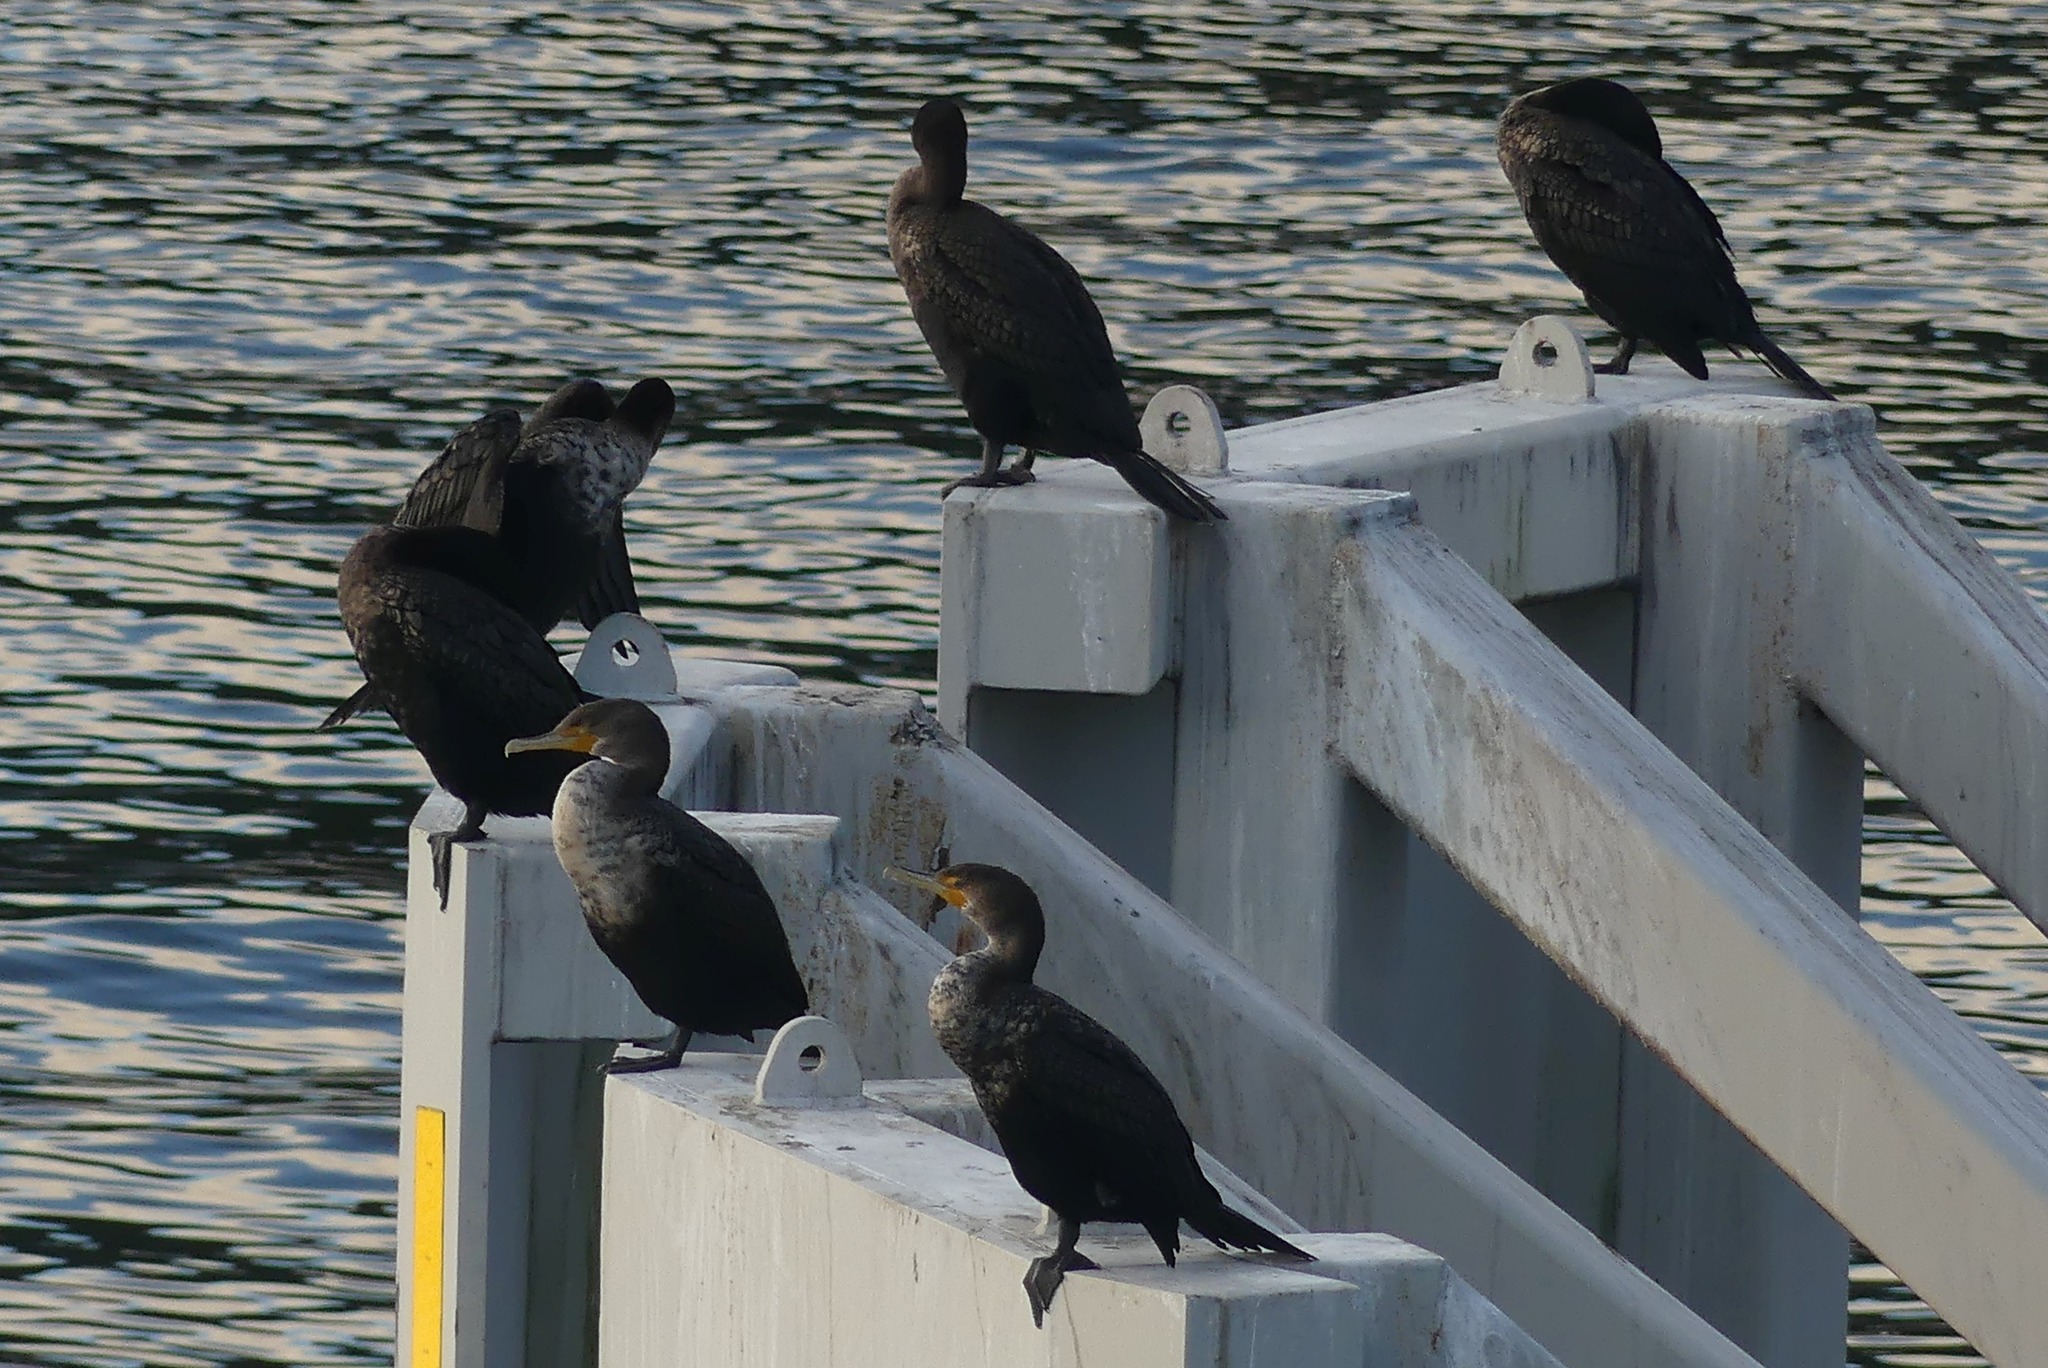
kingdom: Animalia
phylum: Chordata
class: Aves
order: Suliformes
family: Phalacrocoracidae
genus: Phalacrocorax
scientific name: Phalacrocorax auritus
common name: Double-crested cormorant
